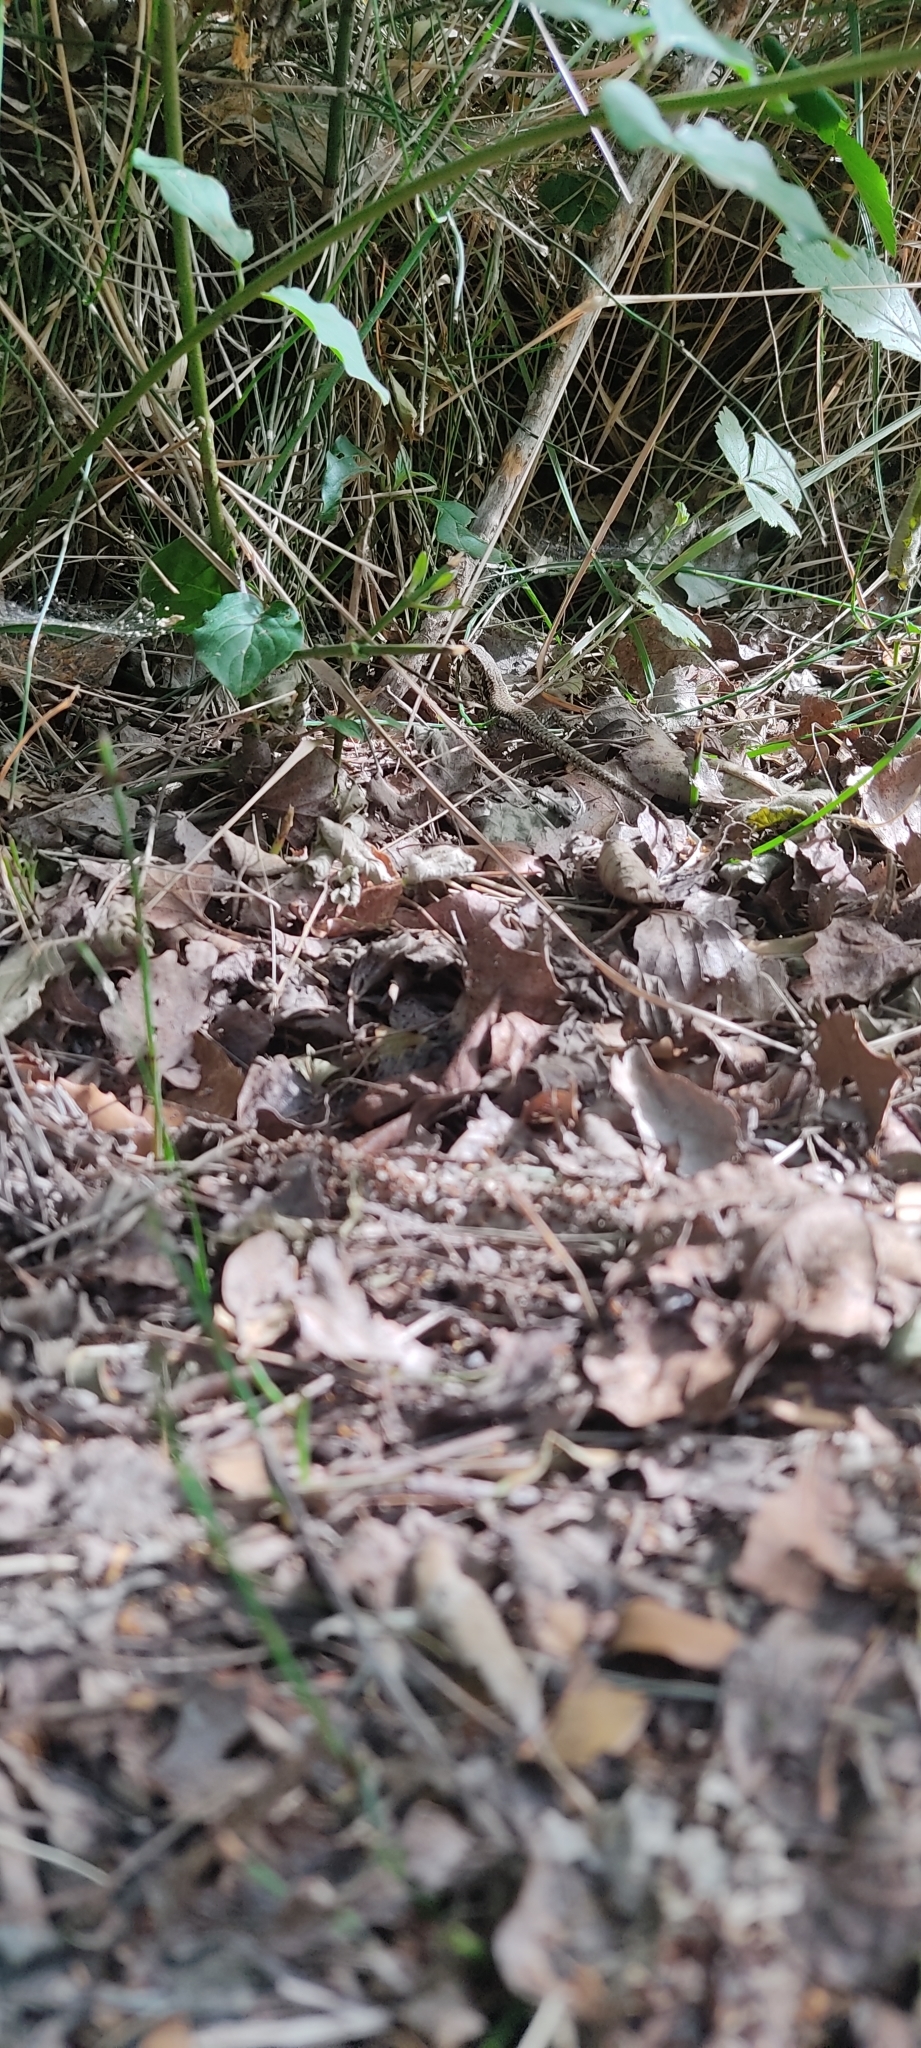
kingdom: Animalia
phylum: Chordata
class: Squamata
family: Lacertidae
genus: Podarcis
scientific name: Podarcis muralis
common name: Common wall lizard
